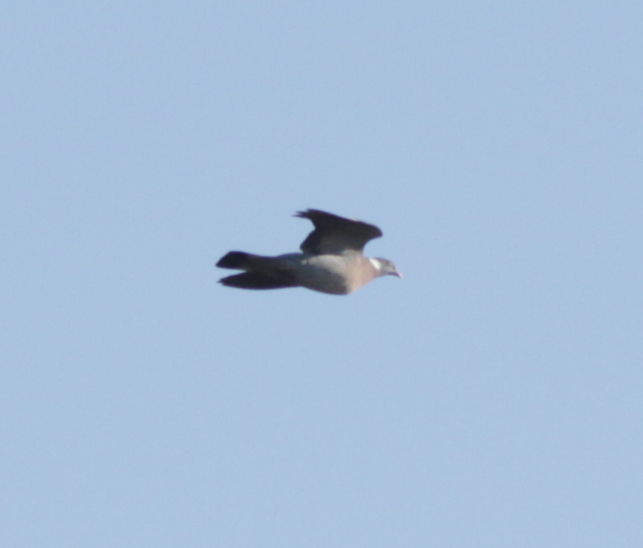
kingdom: Animalia
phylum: Chordata
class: Aves
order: Columbiformes
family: Columbidae
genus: Columba
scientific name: Columba palumbus
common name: Common wood pigeon
